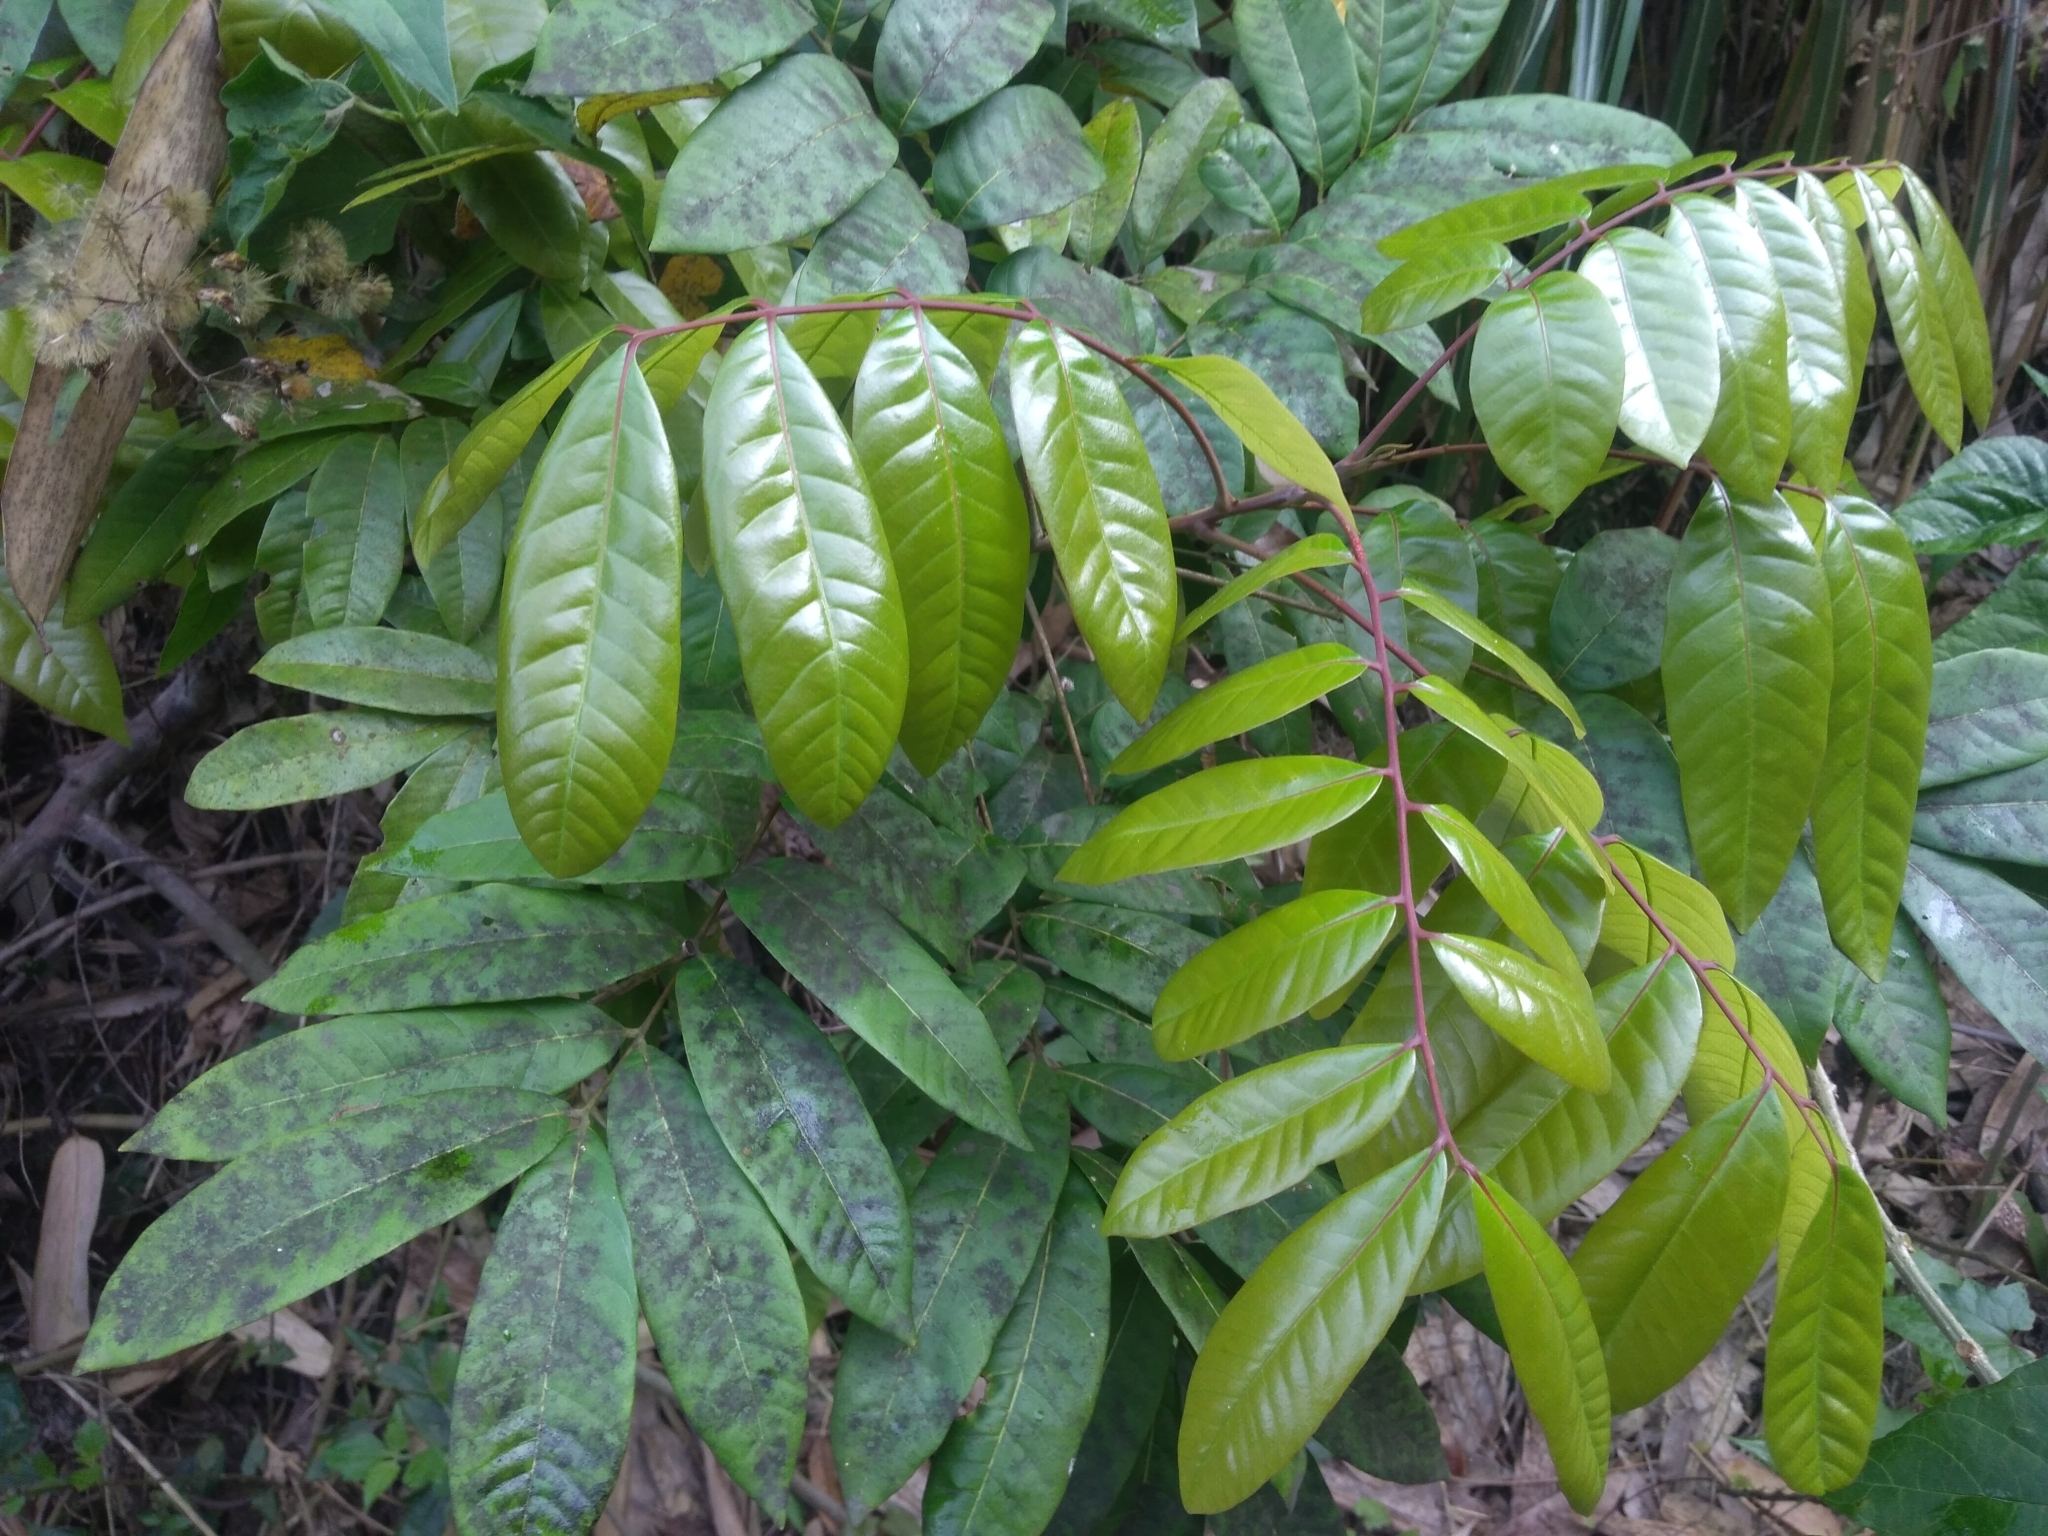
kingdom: Plantae
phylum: Tracheophyta
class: Magnoliopsida
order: Sapindales
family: Sapindaceae
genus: Dimocarpus
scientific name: Dimocarpus longan
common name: Longan
